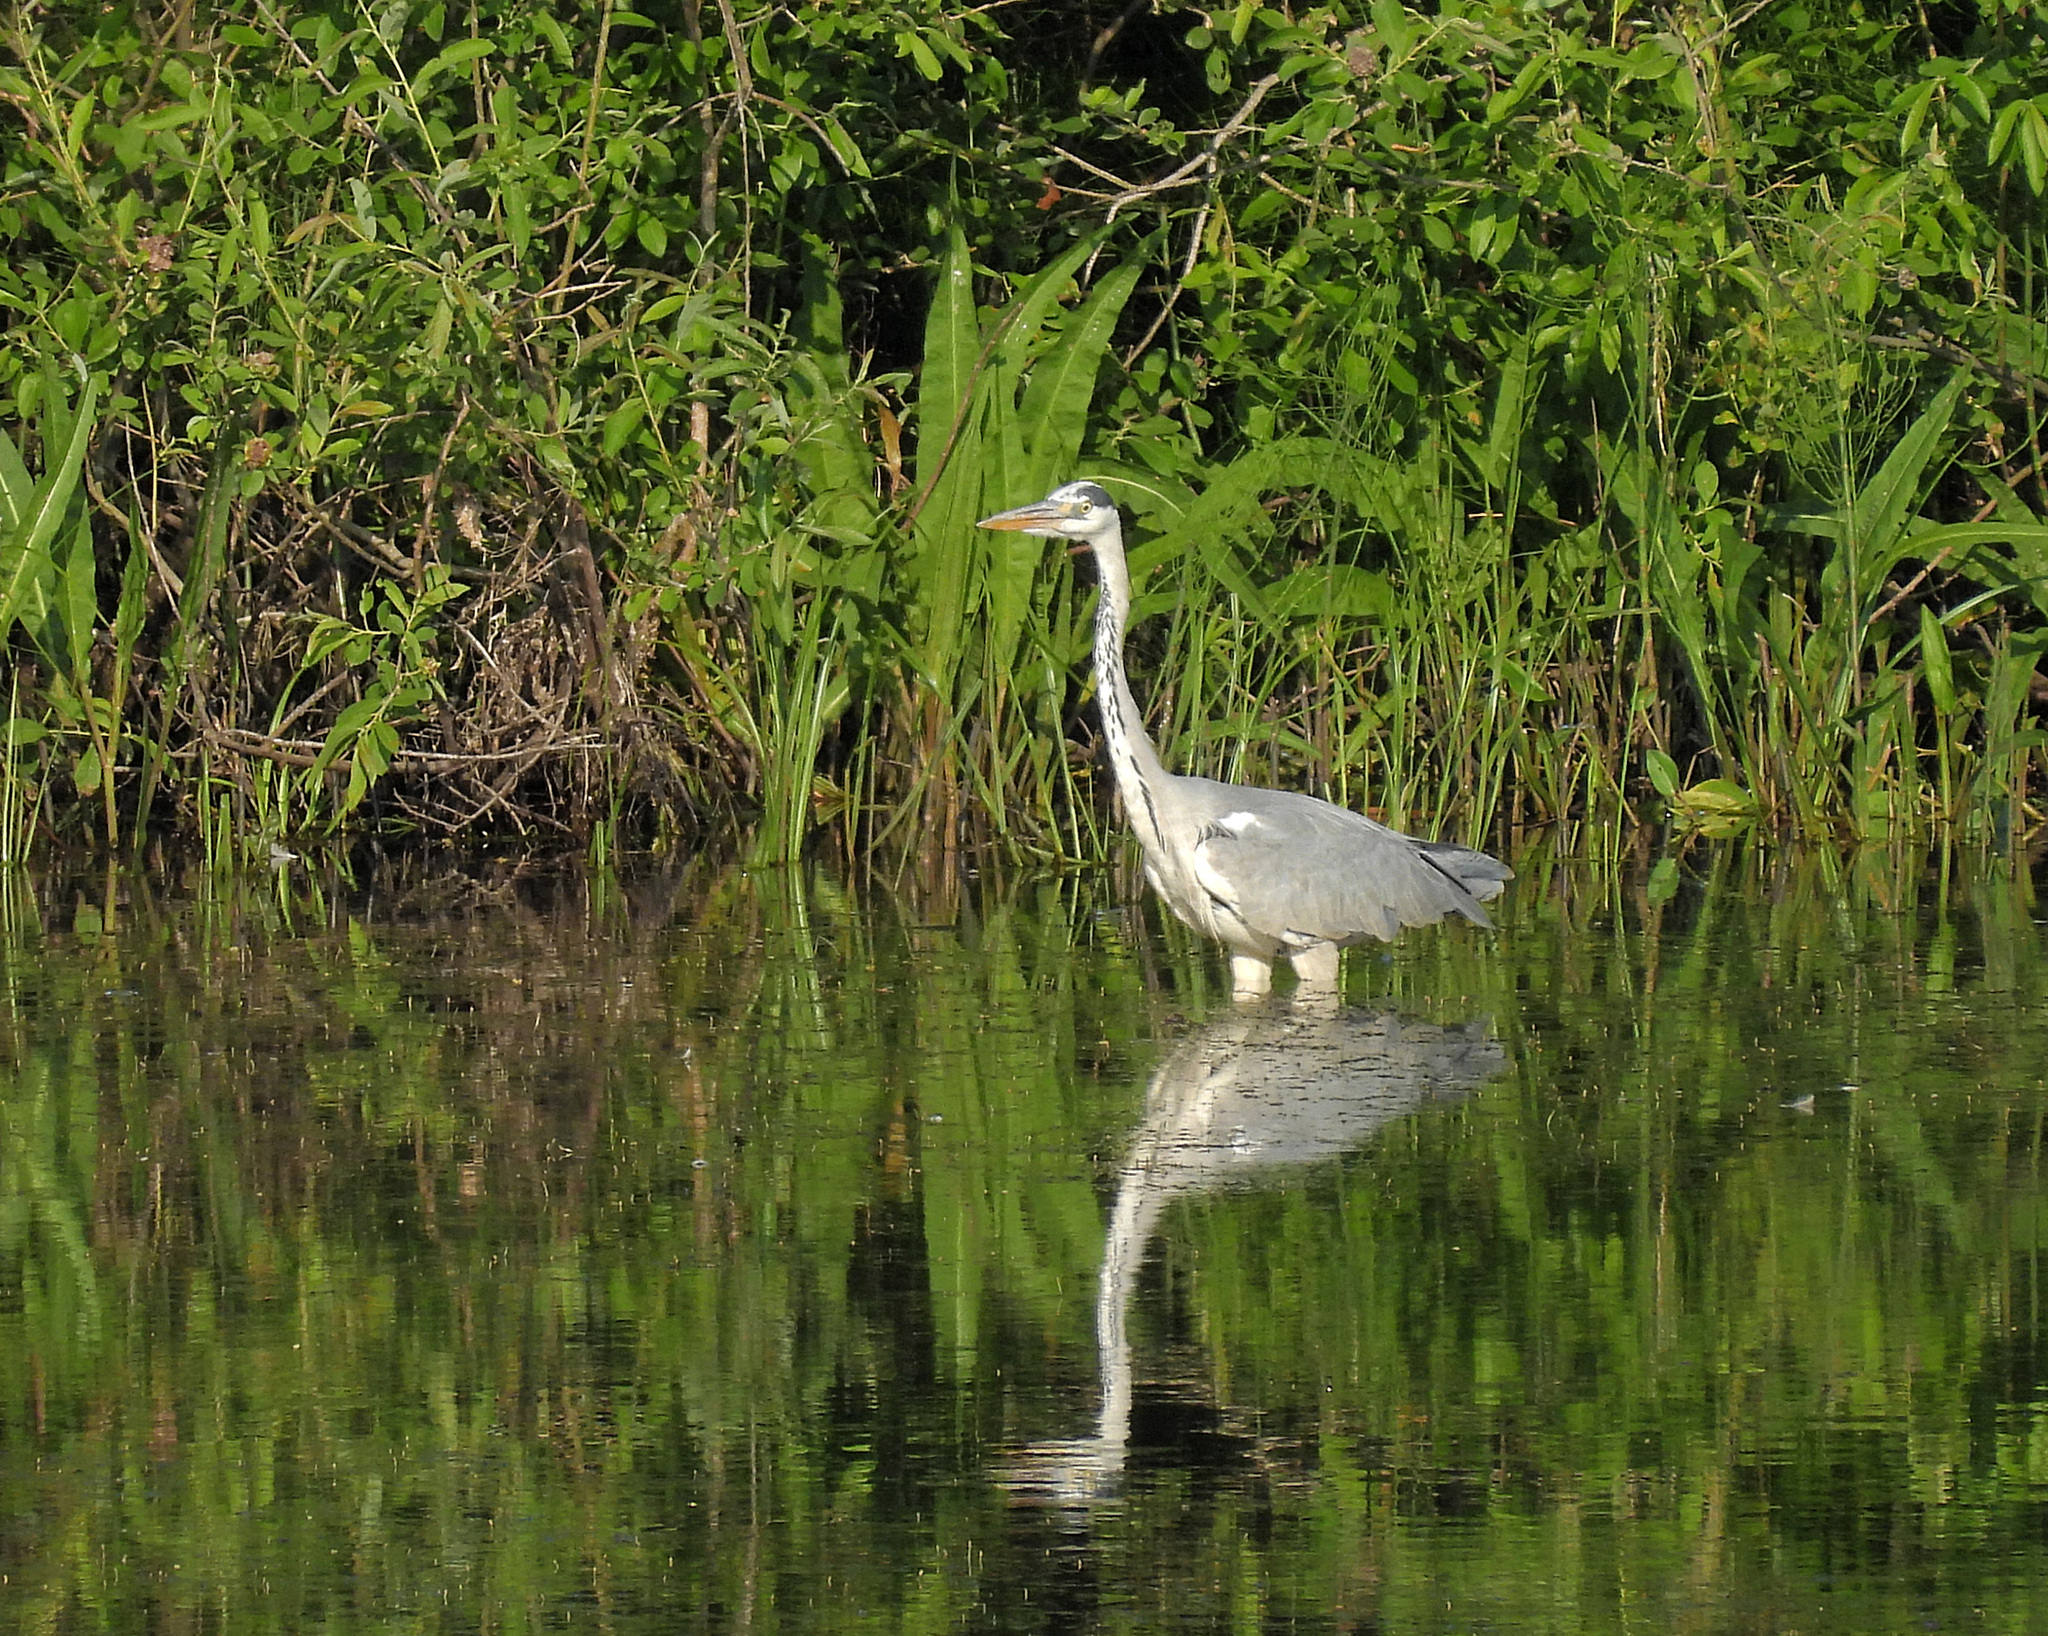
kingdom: Animalia
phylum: Chordata
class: Aves
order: Pelecaniformes
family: Ardeidae
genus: Ardea
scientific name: Ardea cinerea
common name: Grey heron
